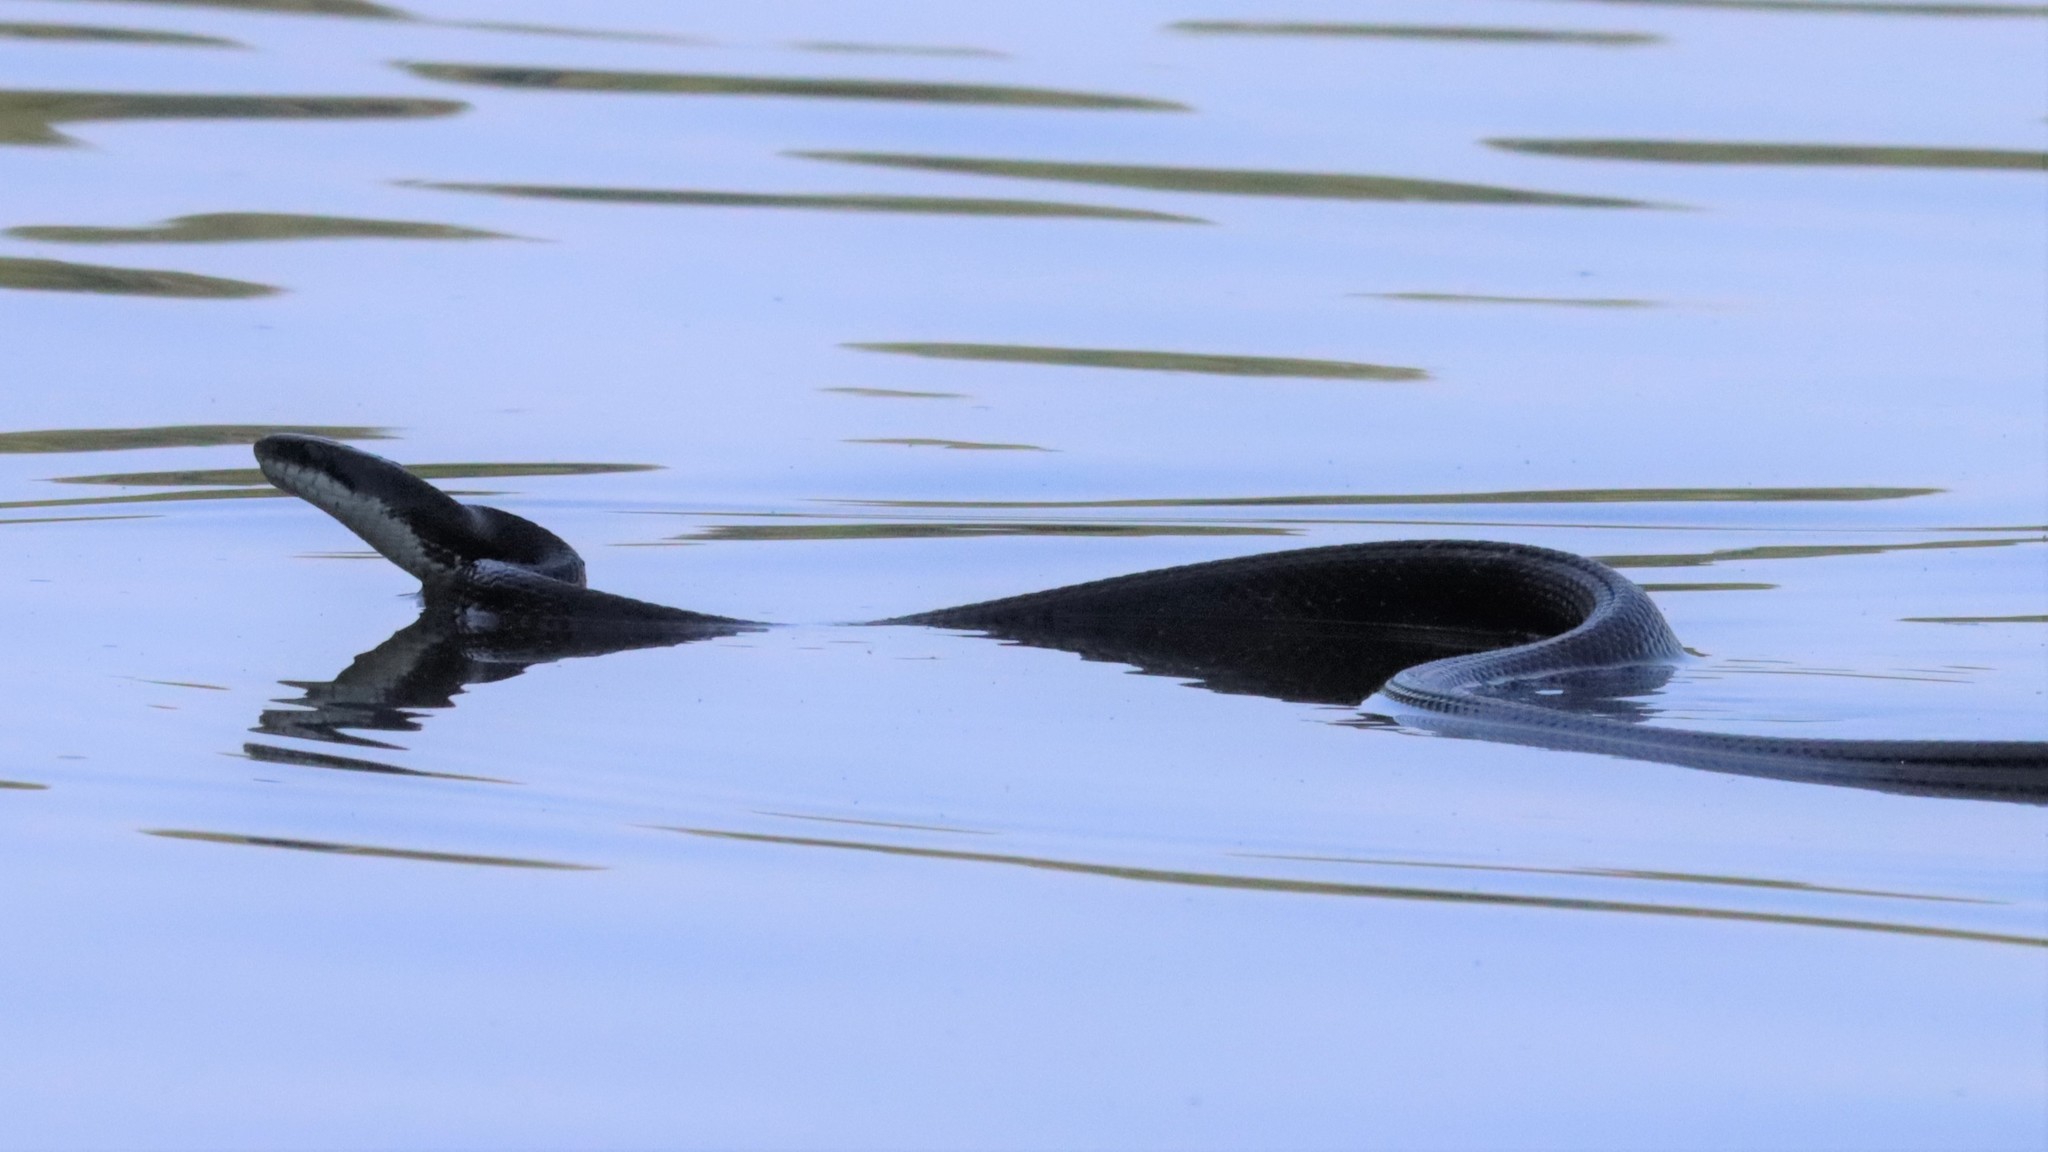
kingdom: Animalia
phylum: Chordata
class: Squamata
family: Colubridae
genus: Pantherophis
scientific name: Pantherophis obsoletus
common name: Black rat snake
